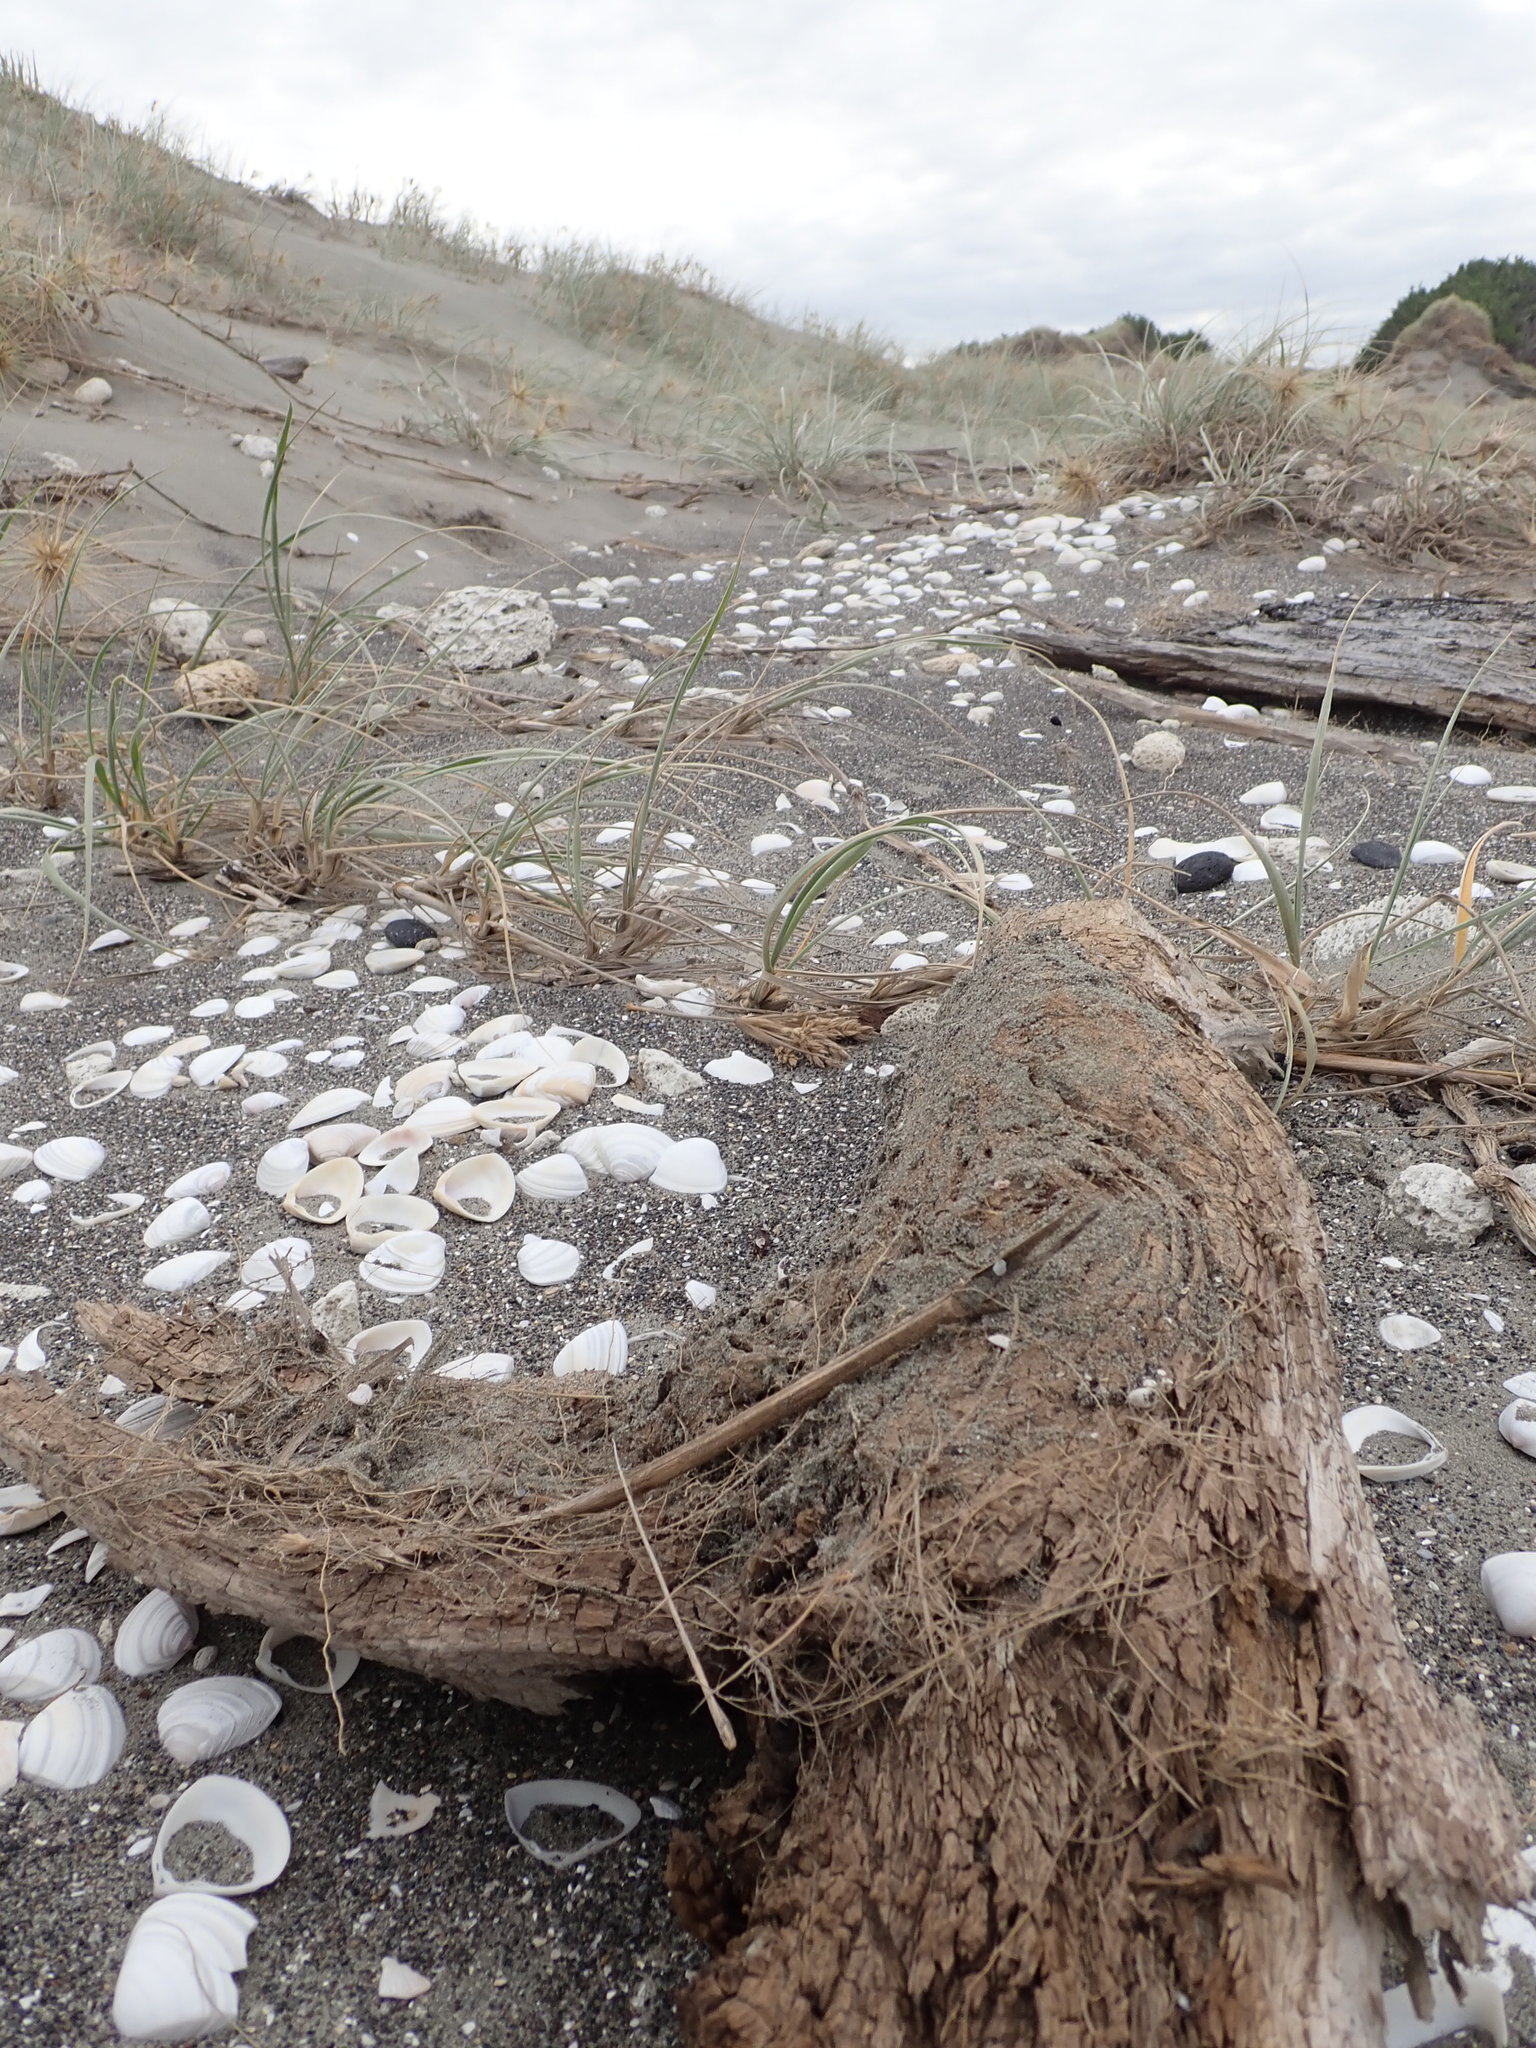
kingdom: Animalia
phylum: Arthropoda
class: Arachnida
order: Araneae
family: Theridiidae
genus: Latrodectus
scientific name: Latrodectus katipo
